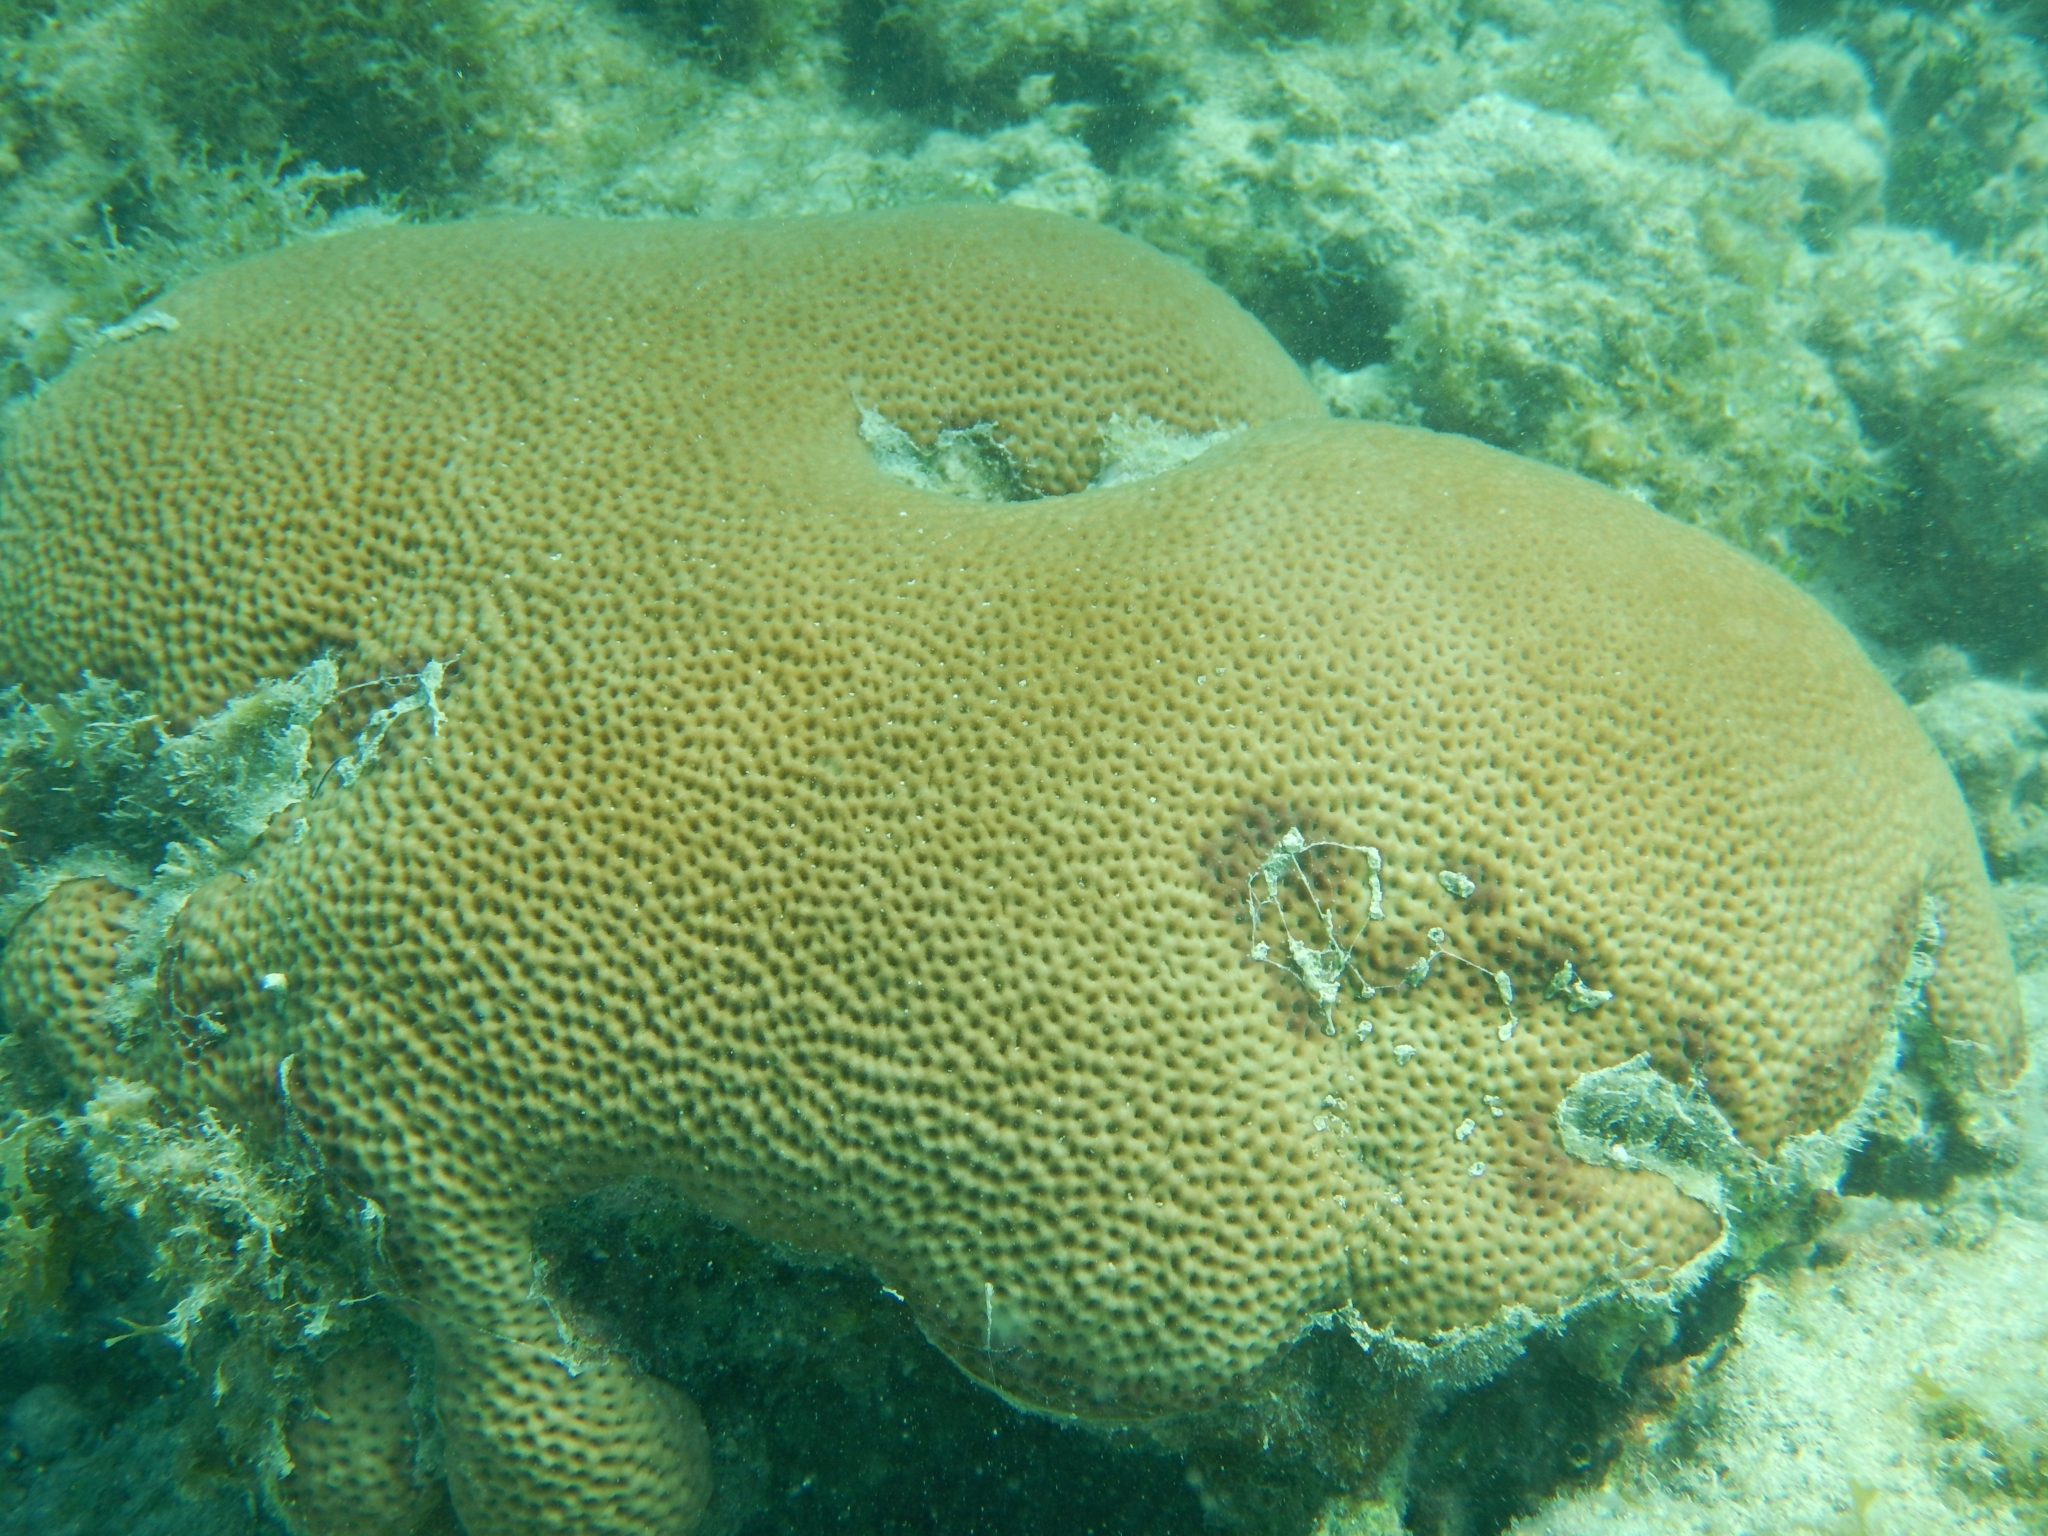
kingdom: Animalia
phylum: Cnidaria
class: Anthozoa
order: Scleractinia
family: Rhizangiidae
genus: Siderastrea
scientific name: Siderastrea siderea
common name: Massive starlet coral
